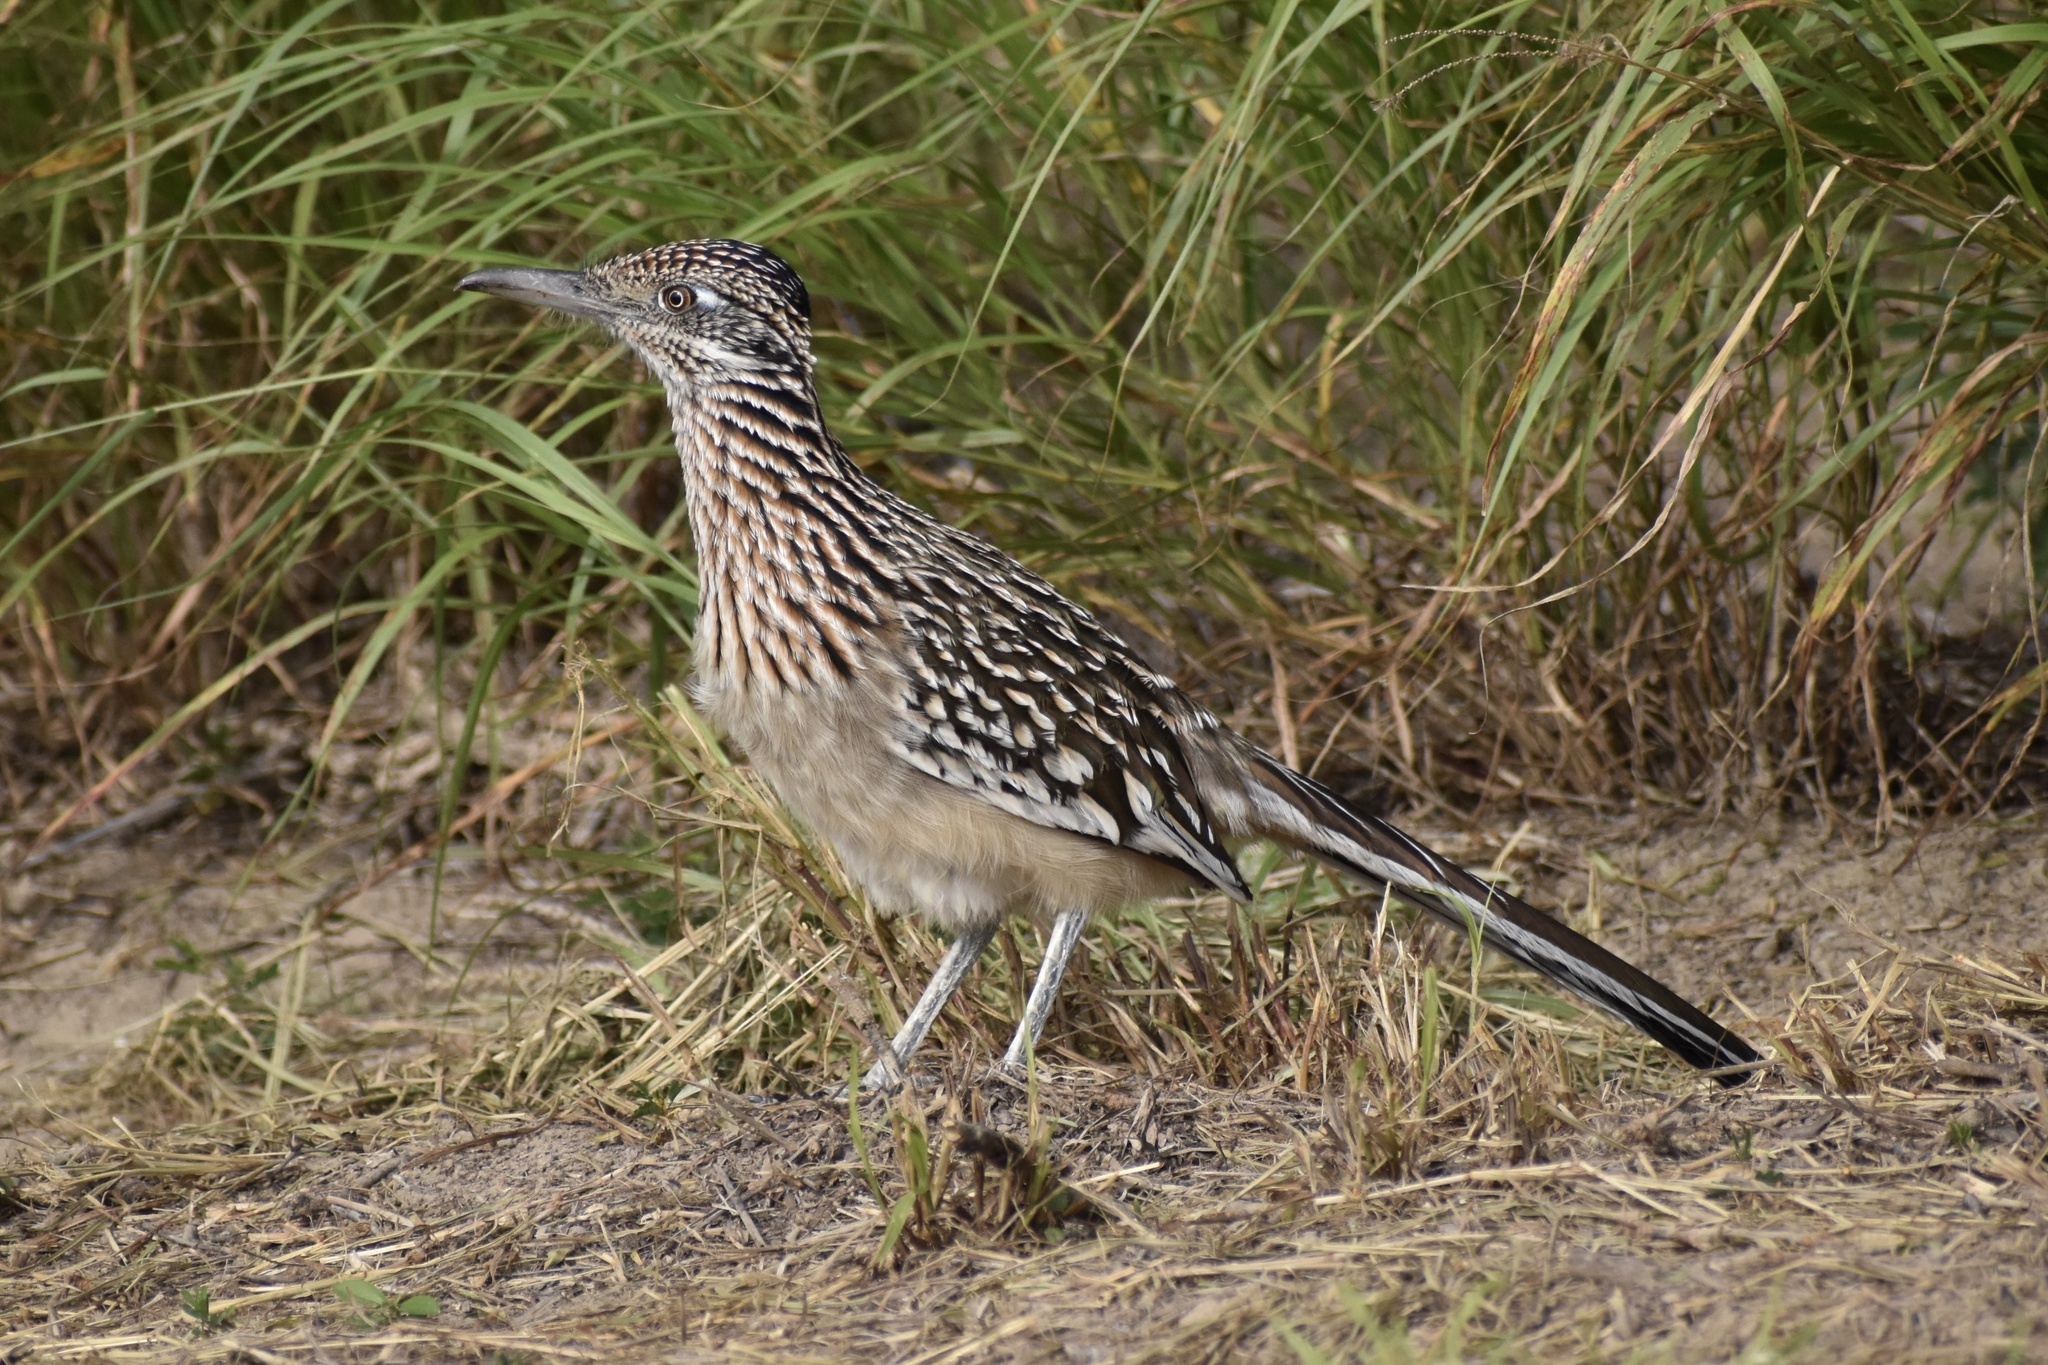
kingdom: Animalia
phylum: Chordata
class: Aves
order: Cuculiformes
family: Cuculidae
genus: Geococcyx
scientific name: Geococcyx californianus
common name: Greater roadrunner
